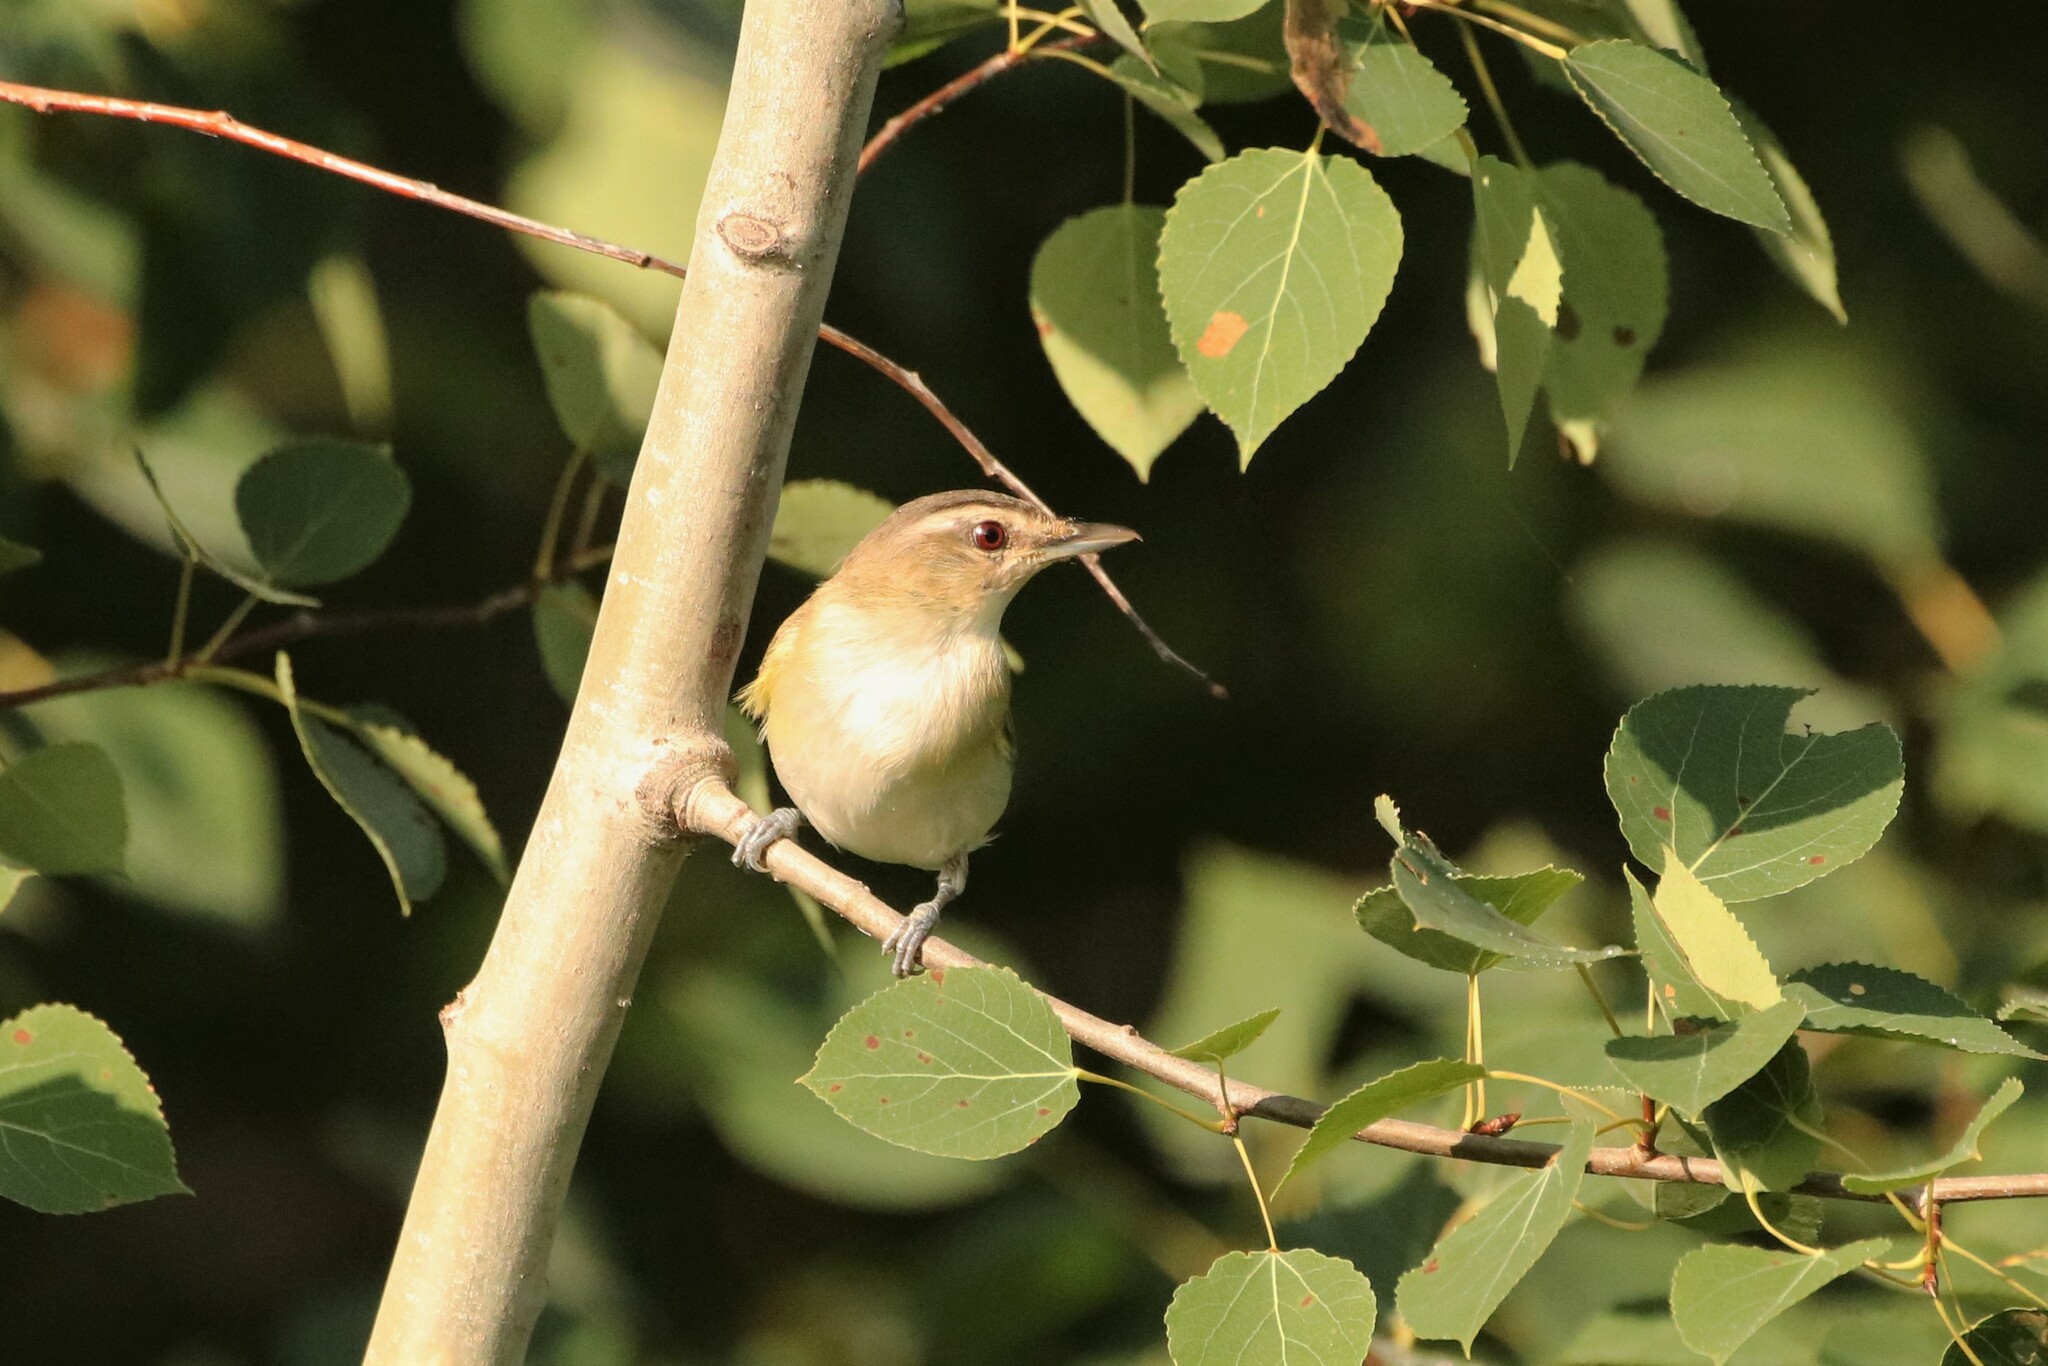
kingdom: Animalia
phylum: Chordata
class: Aves
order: Passeriformes
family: Vireonidae
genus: Vireo
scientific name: Vireo olivaceus
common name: Red-eyed vireo
